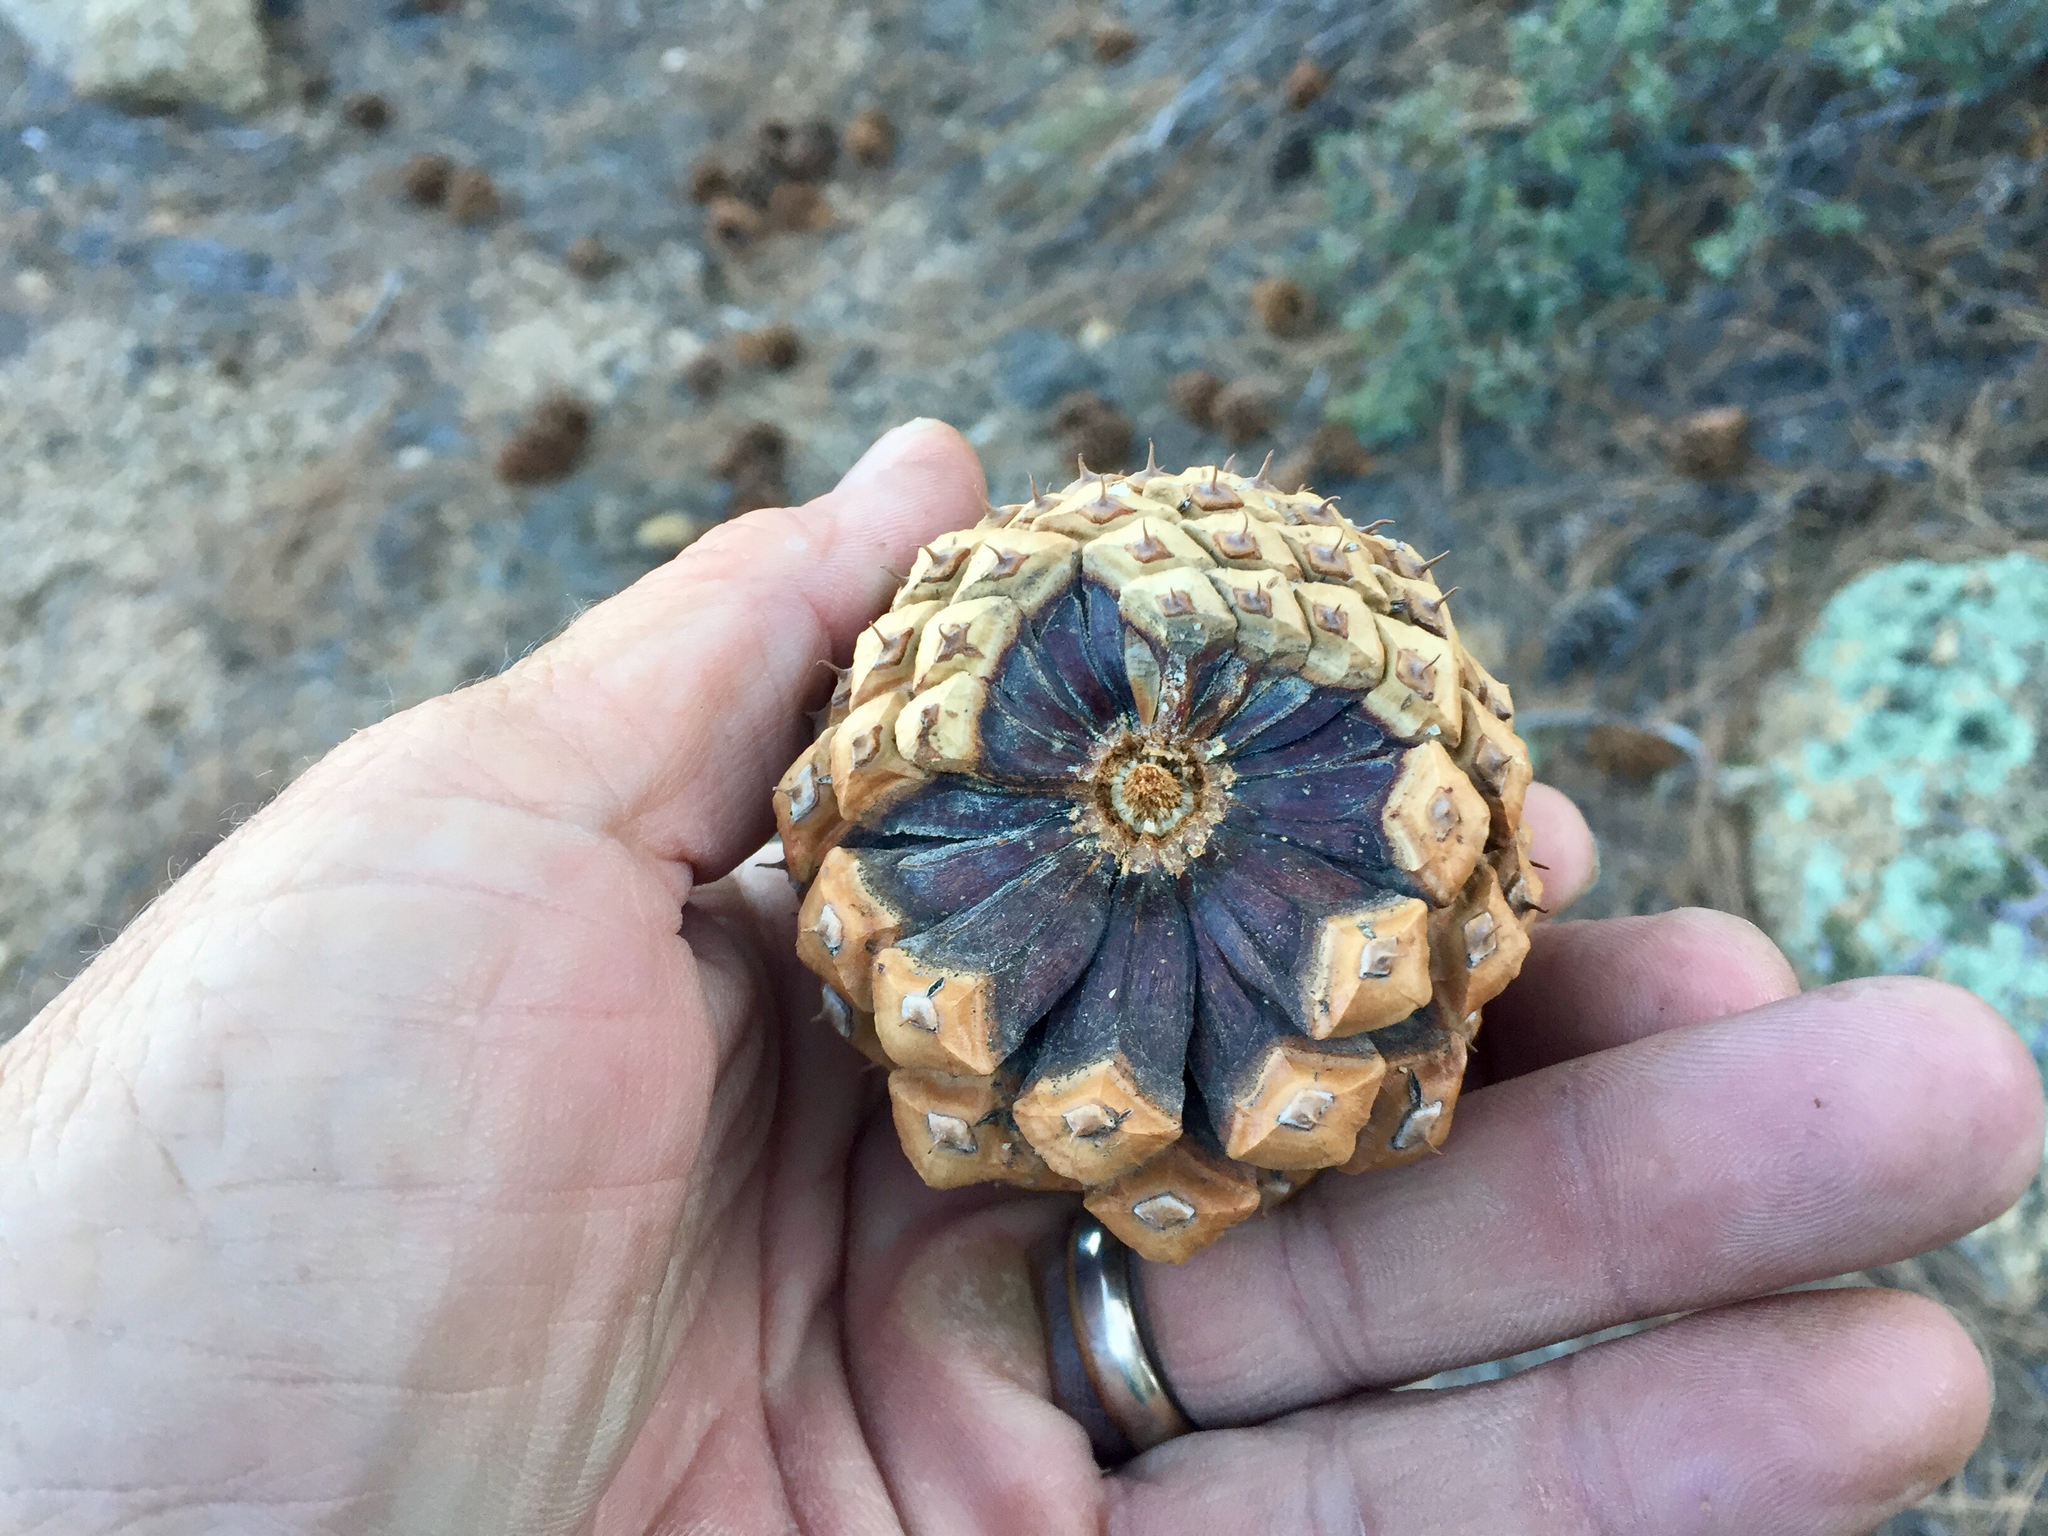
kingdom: Plantae
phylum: Tracheophyta
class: Pinopsida
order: Pinales
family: Pinaceae
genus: Pinus
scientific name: Pinus ponderosa
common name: Western yellow-pine
